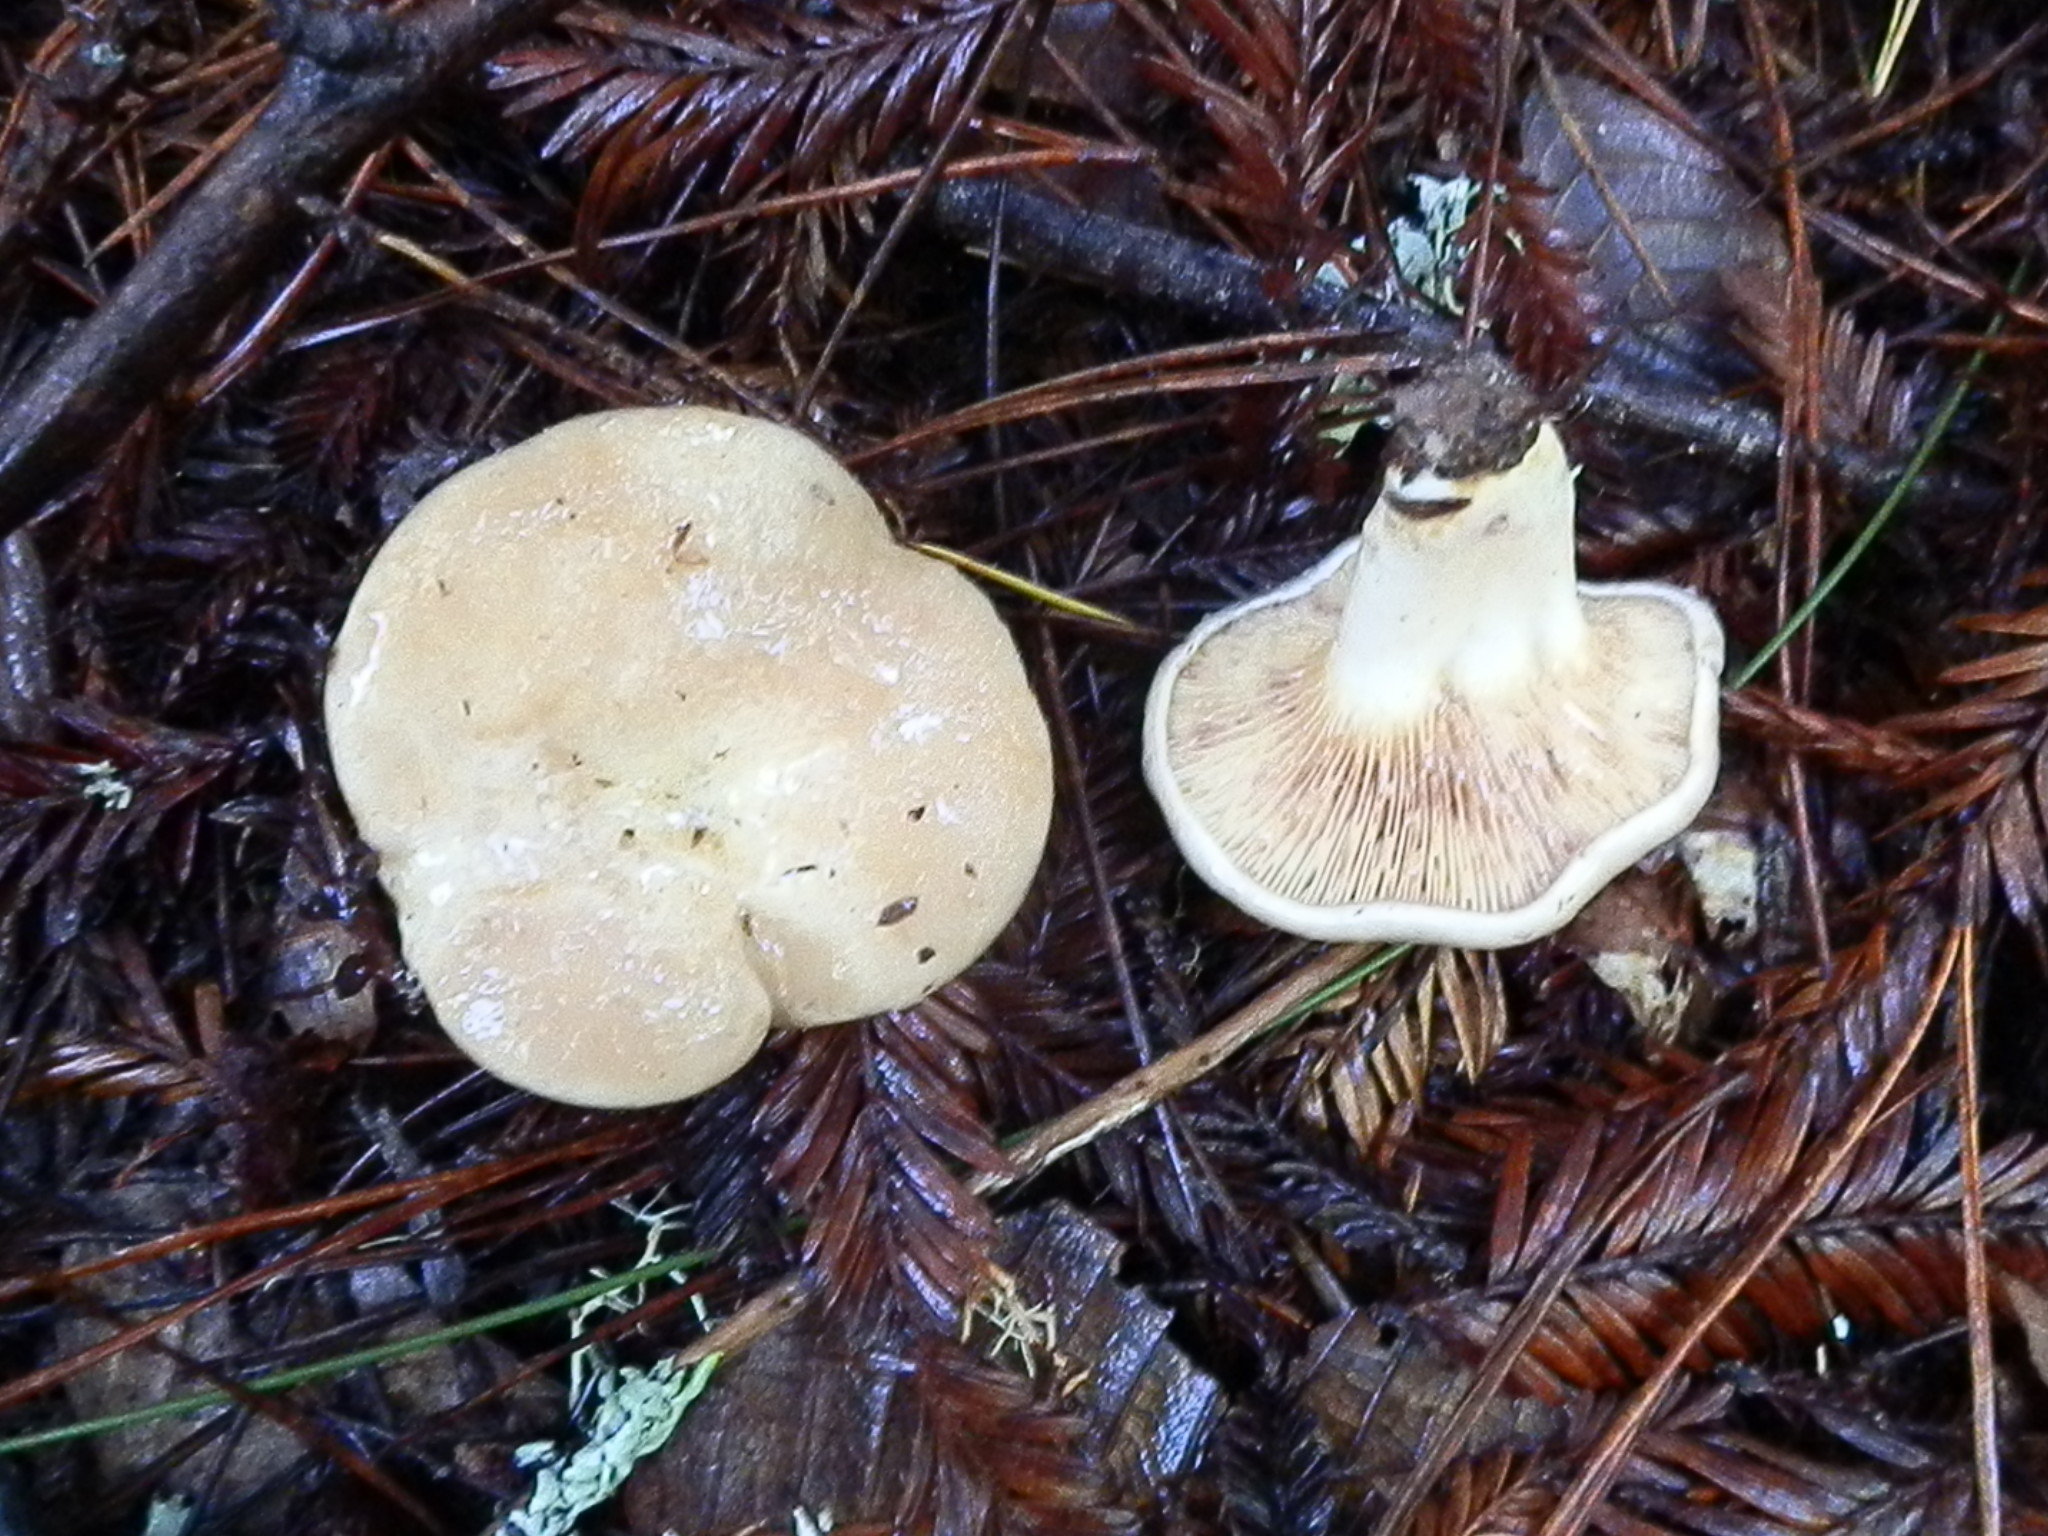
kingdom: Fungi
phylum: Basidiomycota
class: Agaricomycetes
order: Russulales
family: Russulaceae
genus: Lactarius
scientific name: Lactarius pallescens
